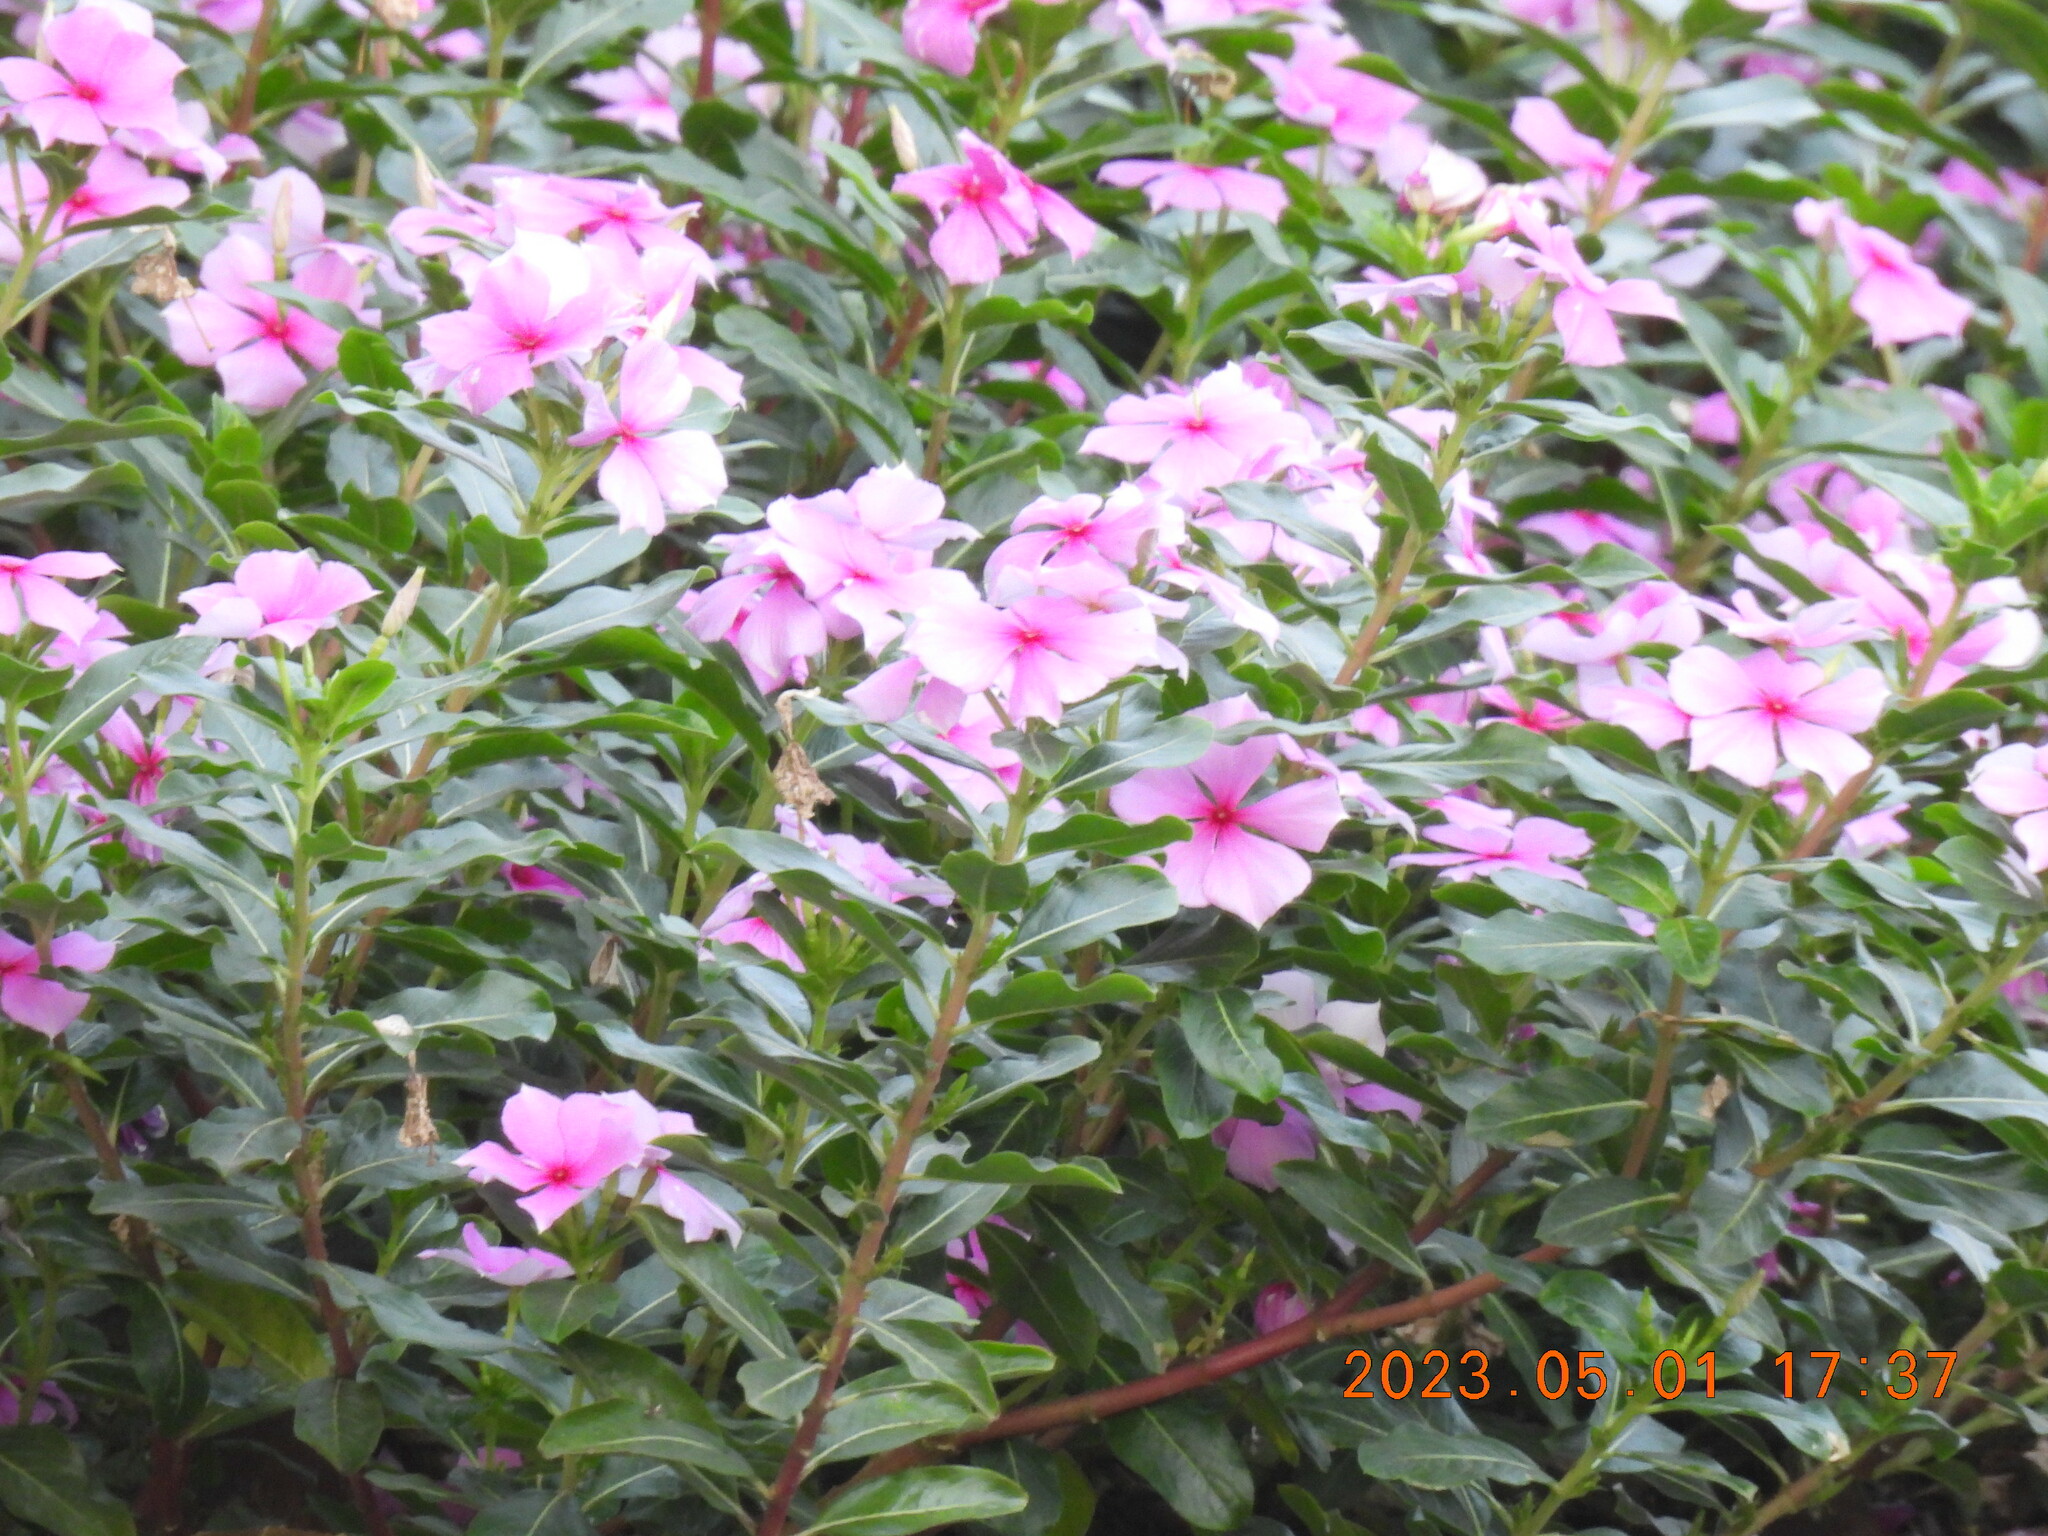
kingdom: Plantae
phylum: Tracheophyta
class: Magnoliopsida
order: Gentianales
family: Apocynaceae
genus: Catharanthus
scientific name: Catharanthus roseus
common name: Madagascar periwinkle
